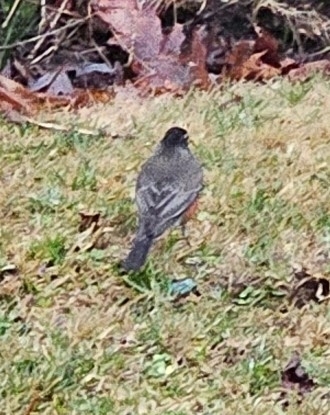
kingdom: Animalia
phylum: Chordata
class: Aves
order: Passeriformes
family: Turdidae
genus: Turdus
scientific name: Turdus migratorius
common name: American robin
